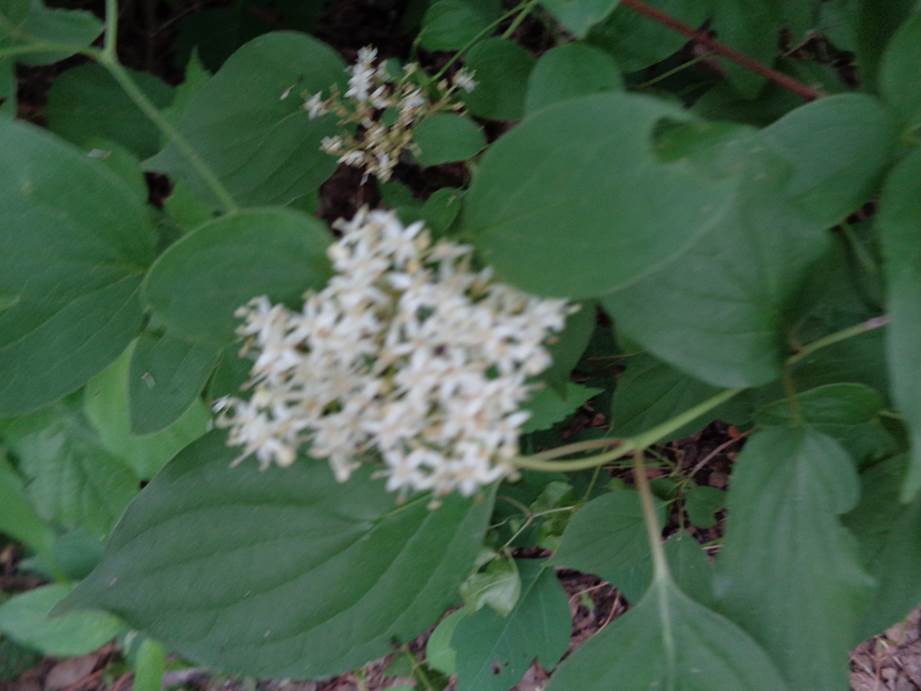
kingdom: Plantae
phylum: Tracheophyta
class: Magnoliopsida
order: Cornales
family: Cornaceae
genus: Cornus
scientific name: Cornus drummondii
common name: Rough-leaf dogwood
